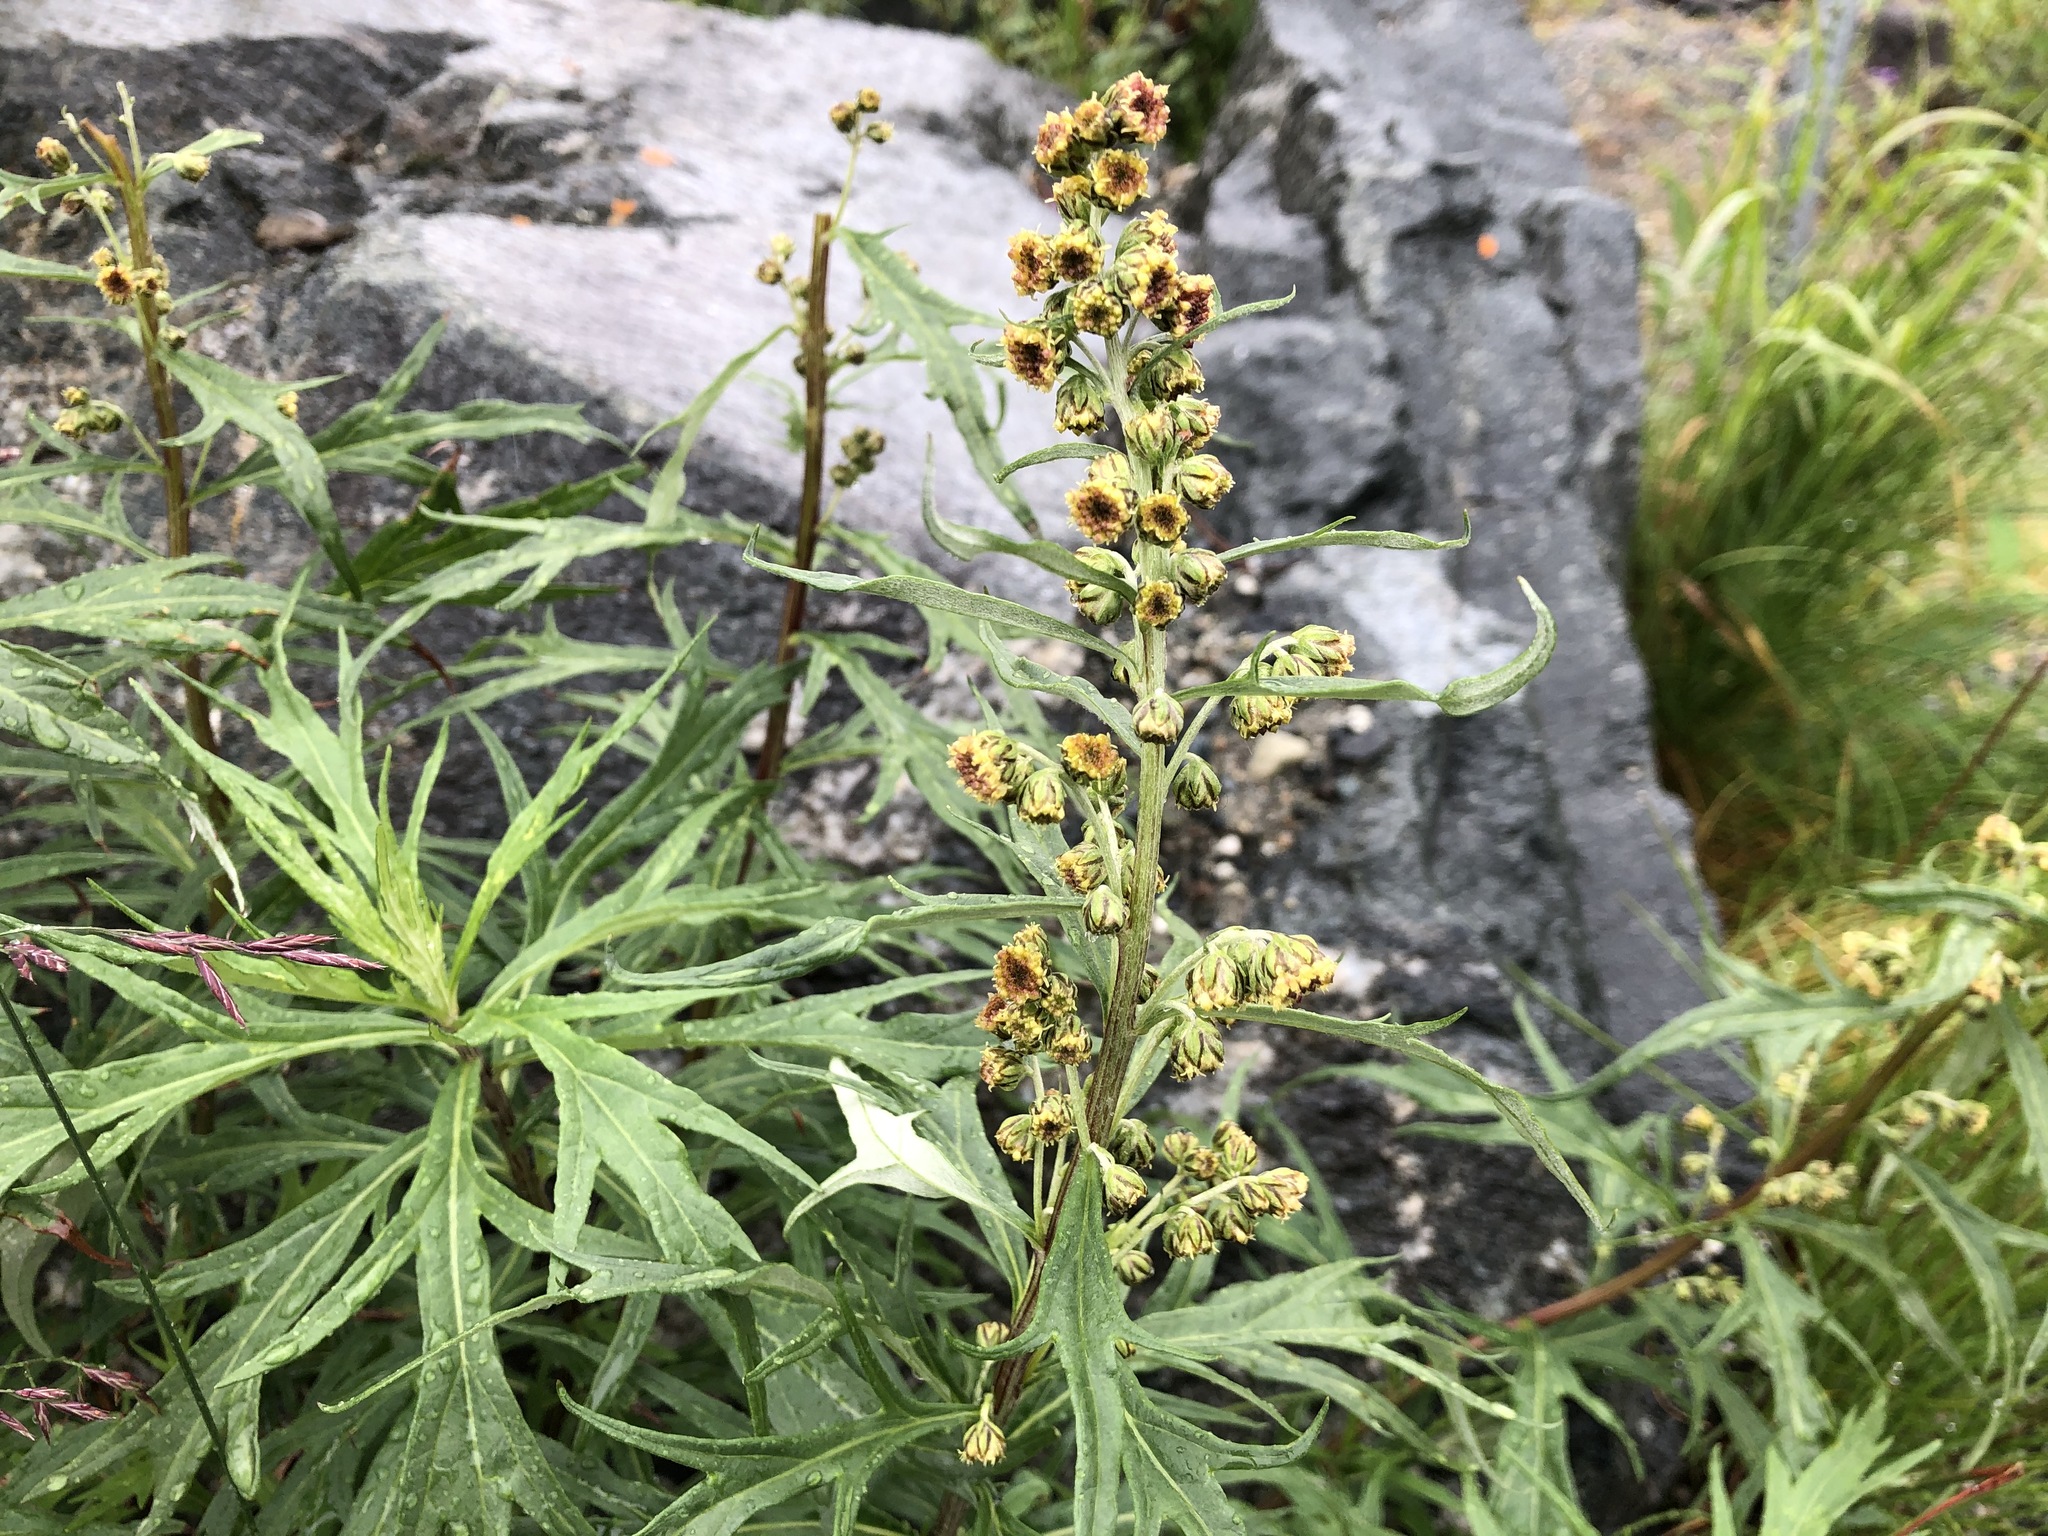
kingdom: Plantae
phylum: Tracheophyta
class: Magnoliopsida
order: Asterales
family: Asteraceae
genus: Artemisia
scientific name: Artemisia tilesii
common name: Aleutian mugwort
